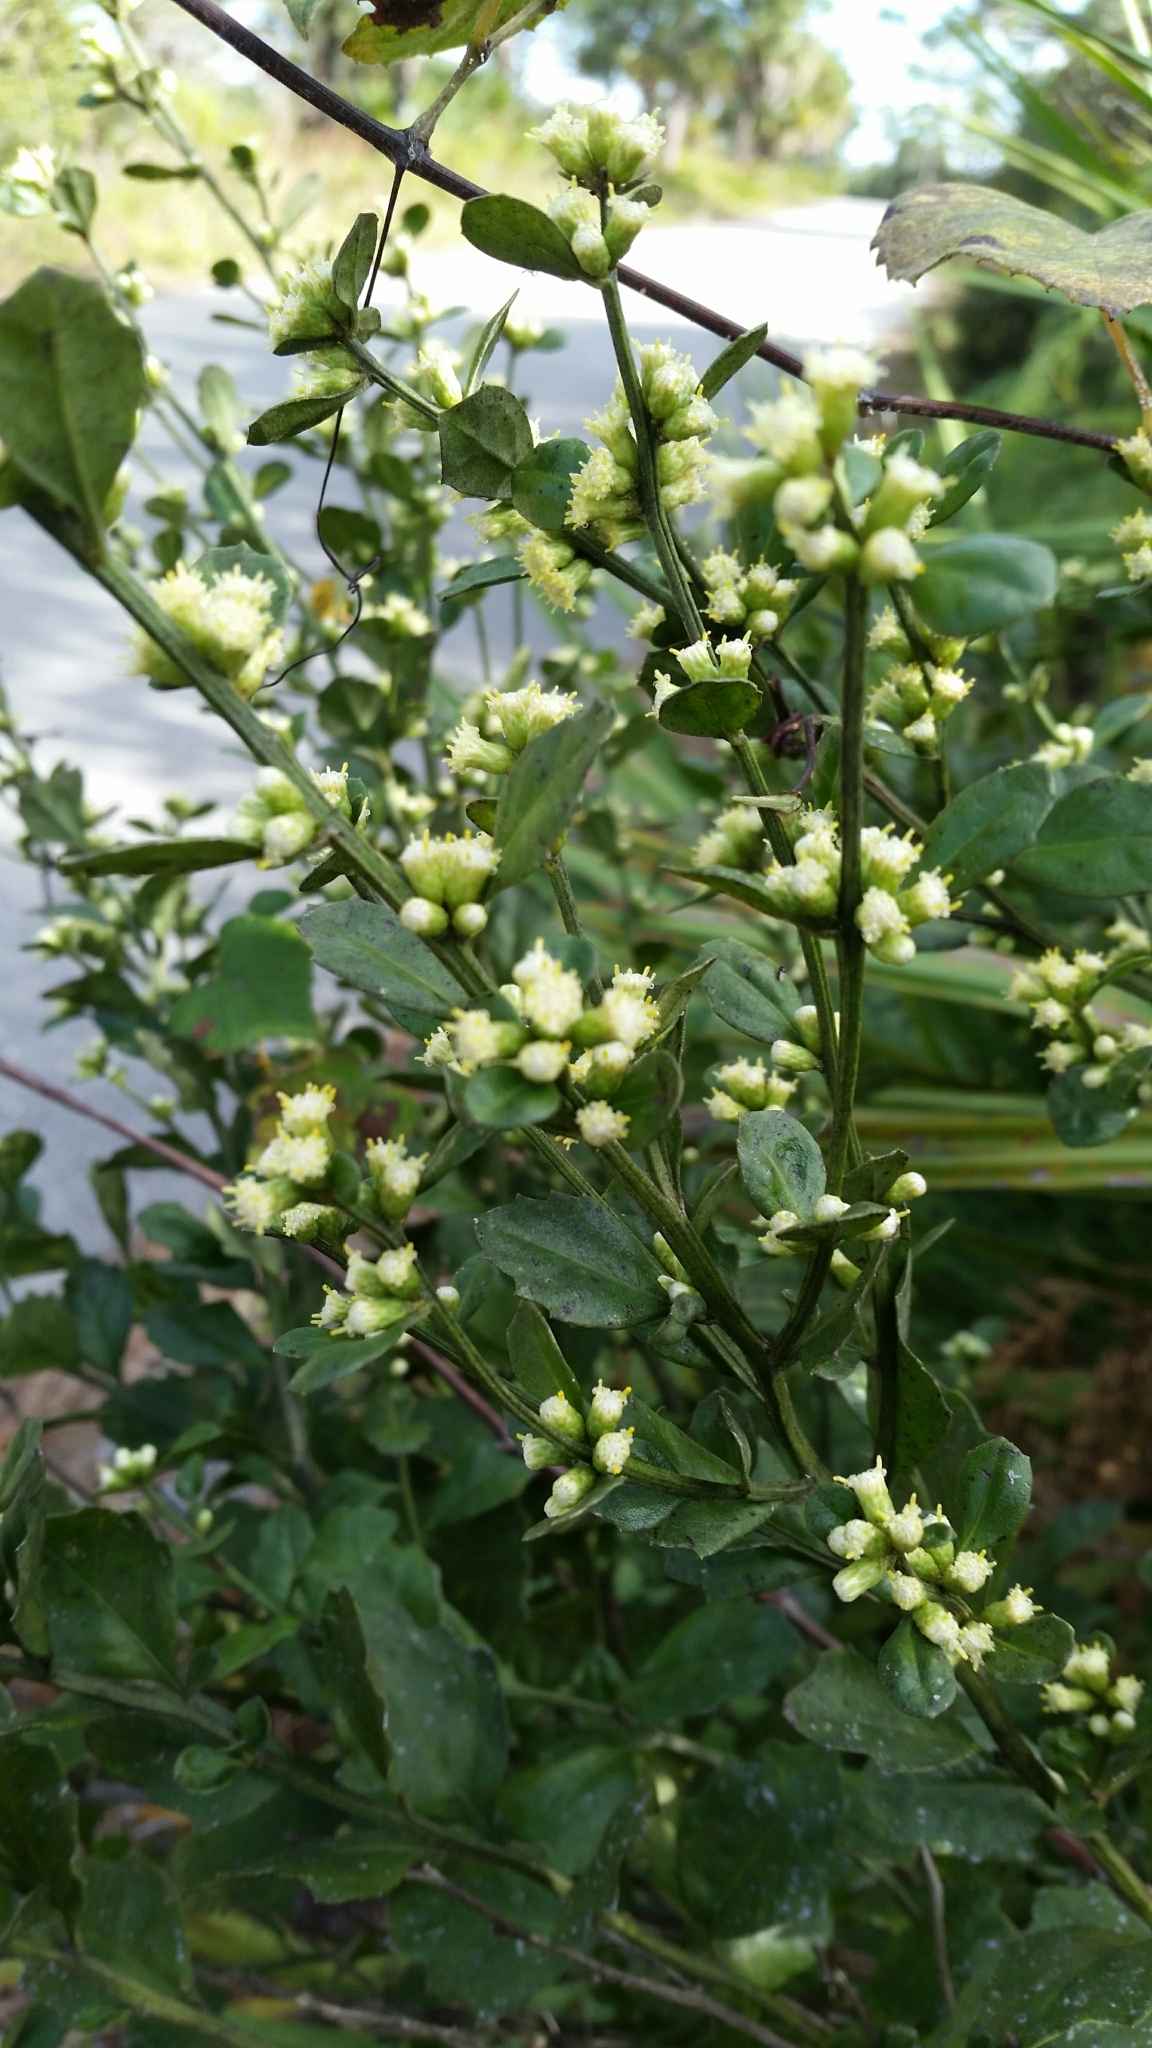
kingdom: Plantae
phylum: Tracheophyta
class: Magnoliopsida
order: Asterales
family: Asteraceae
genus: Baccharis
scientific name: Baccharis glomeruliflora
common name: Silverling groundsel bush
